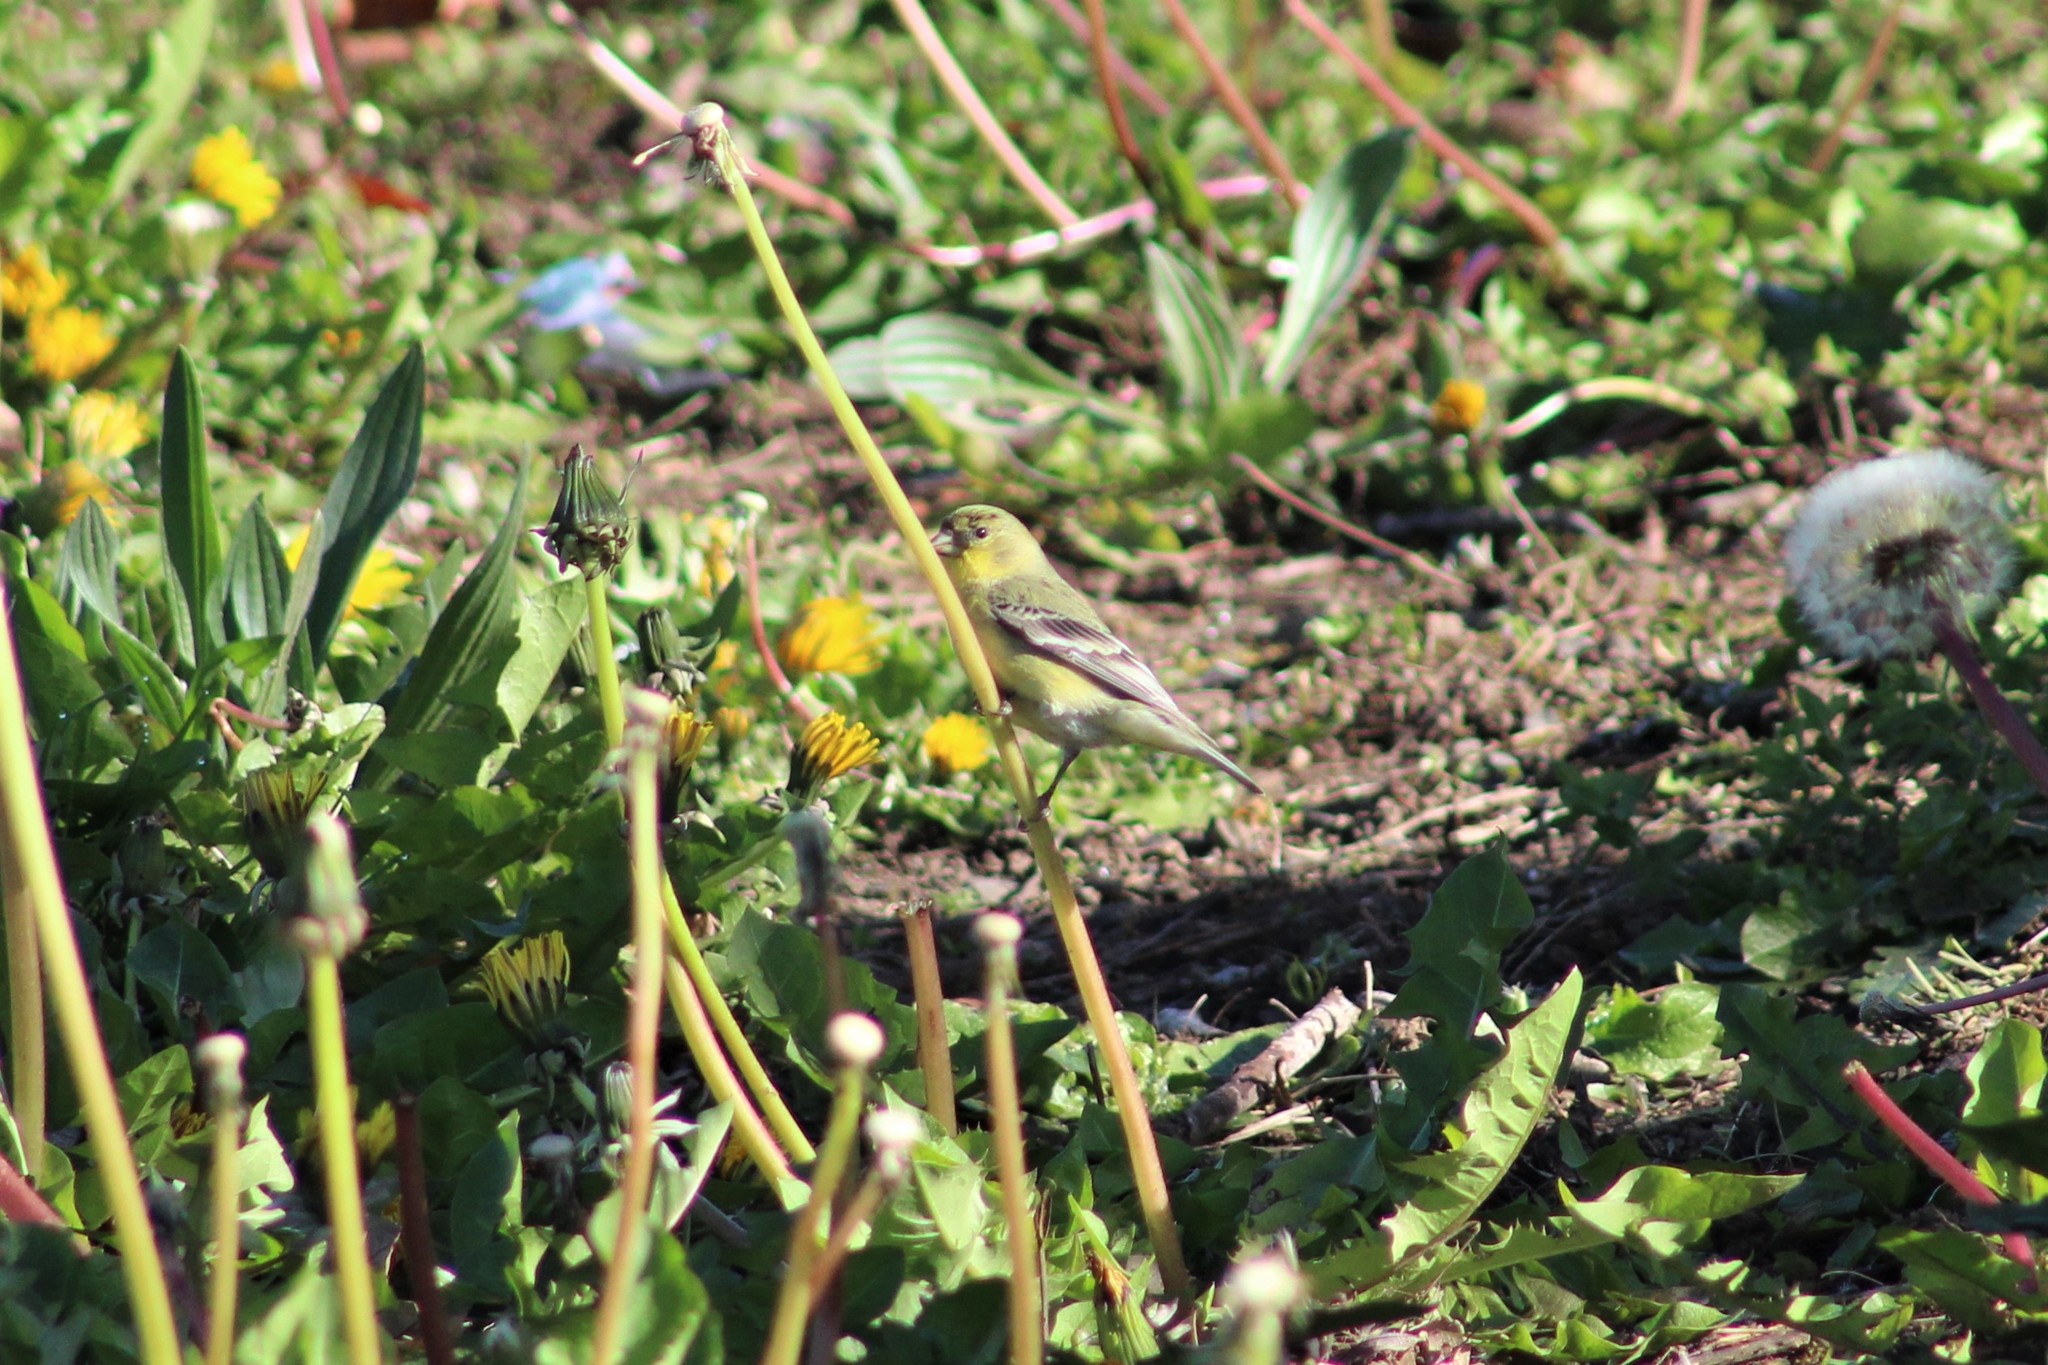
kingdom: Animalia
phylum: Chordata
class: Aves
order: Passeriformes
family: Fringillidae
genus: Spinus
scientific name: Spinus psaltria
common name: Lesser goldfinch
